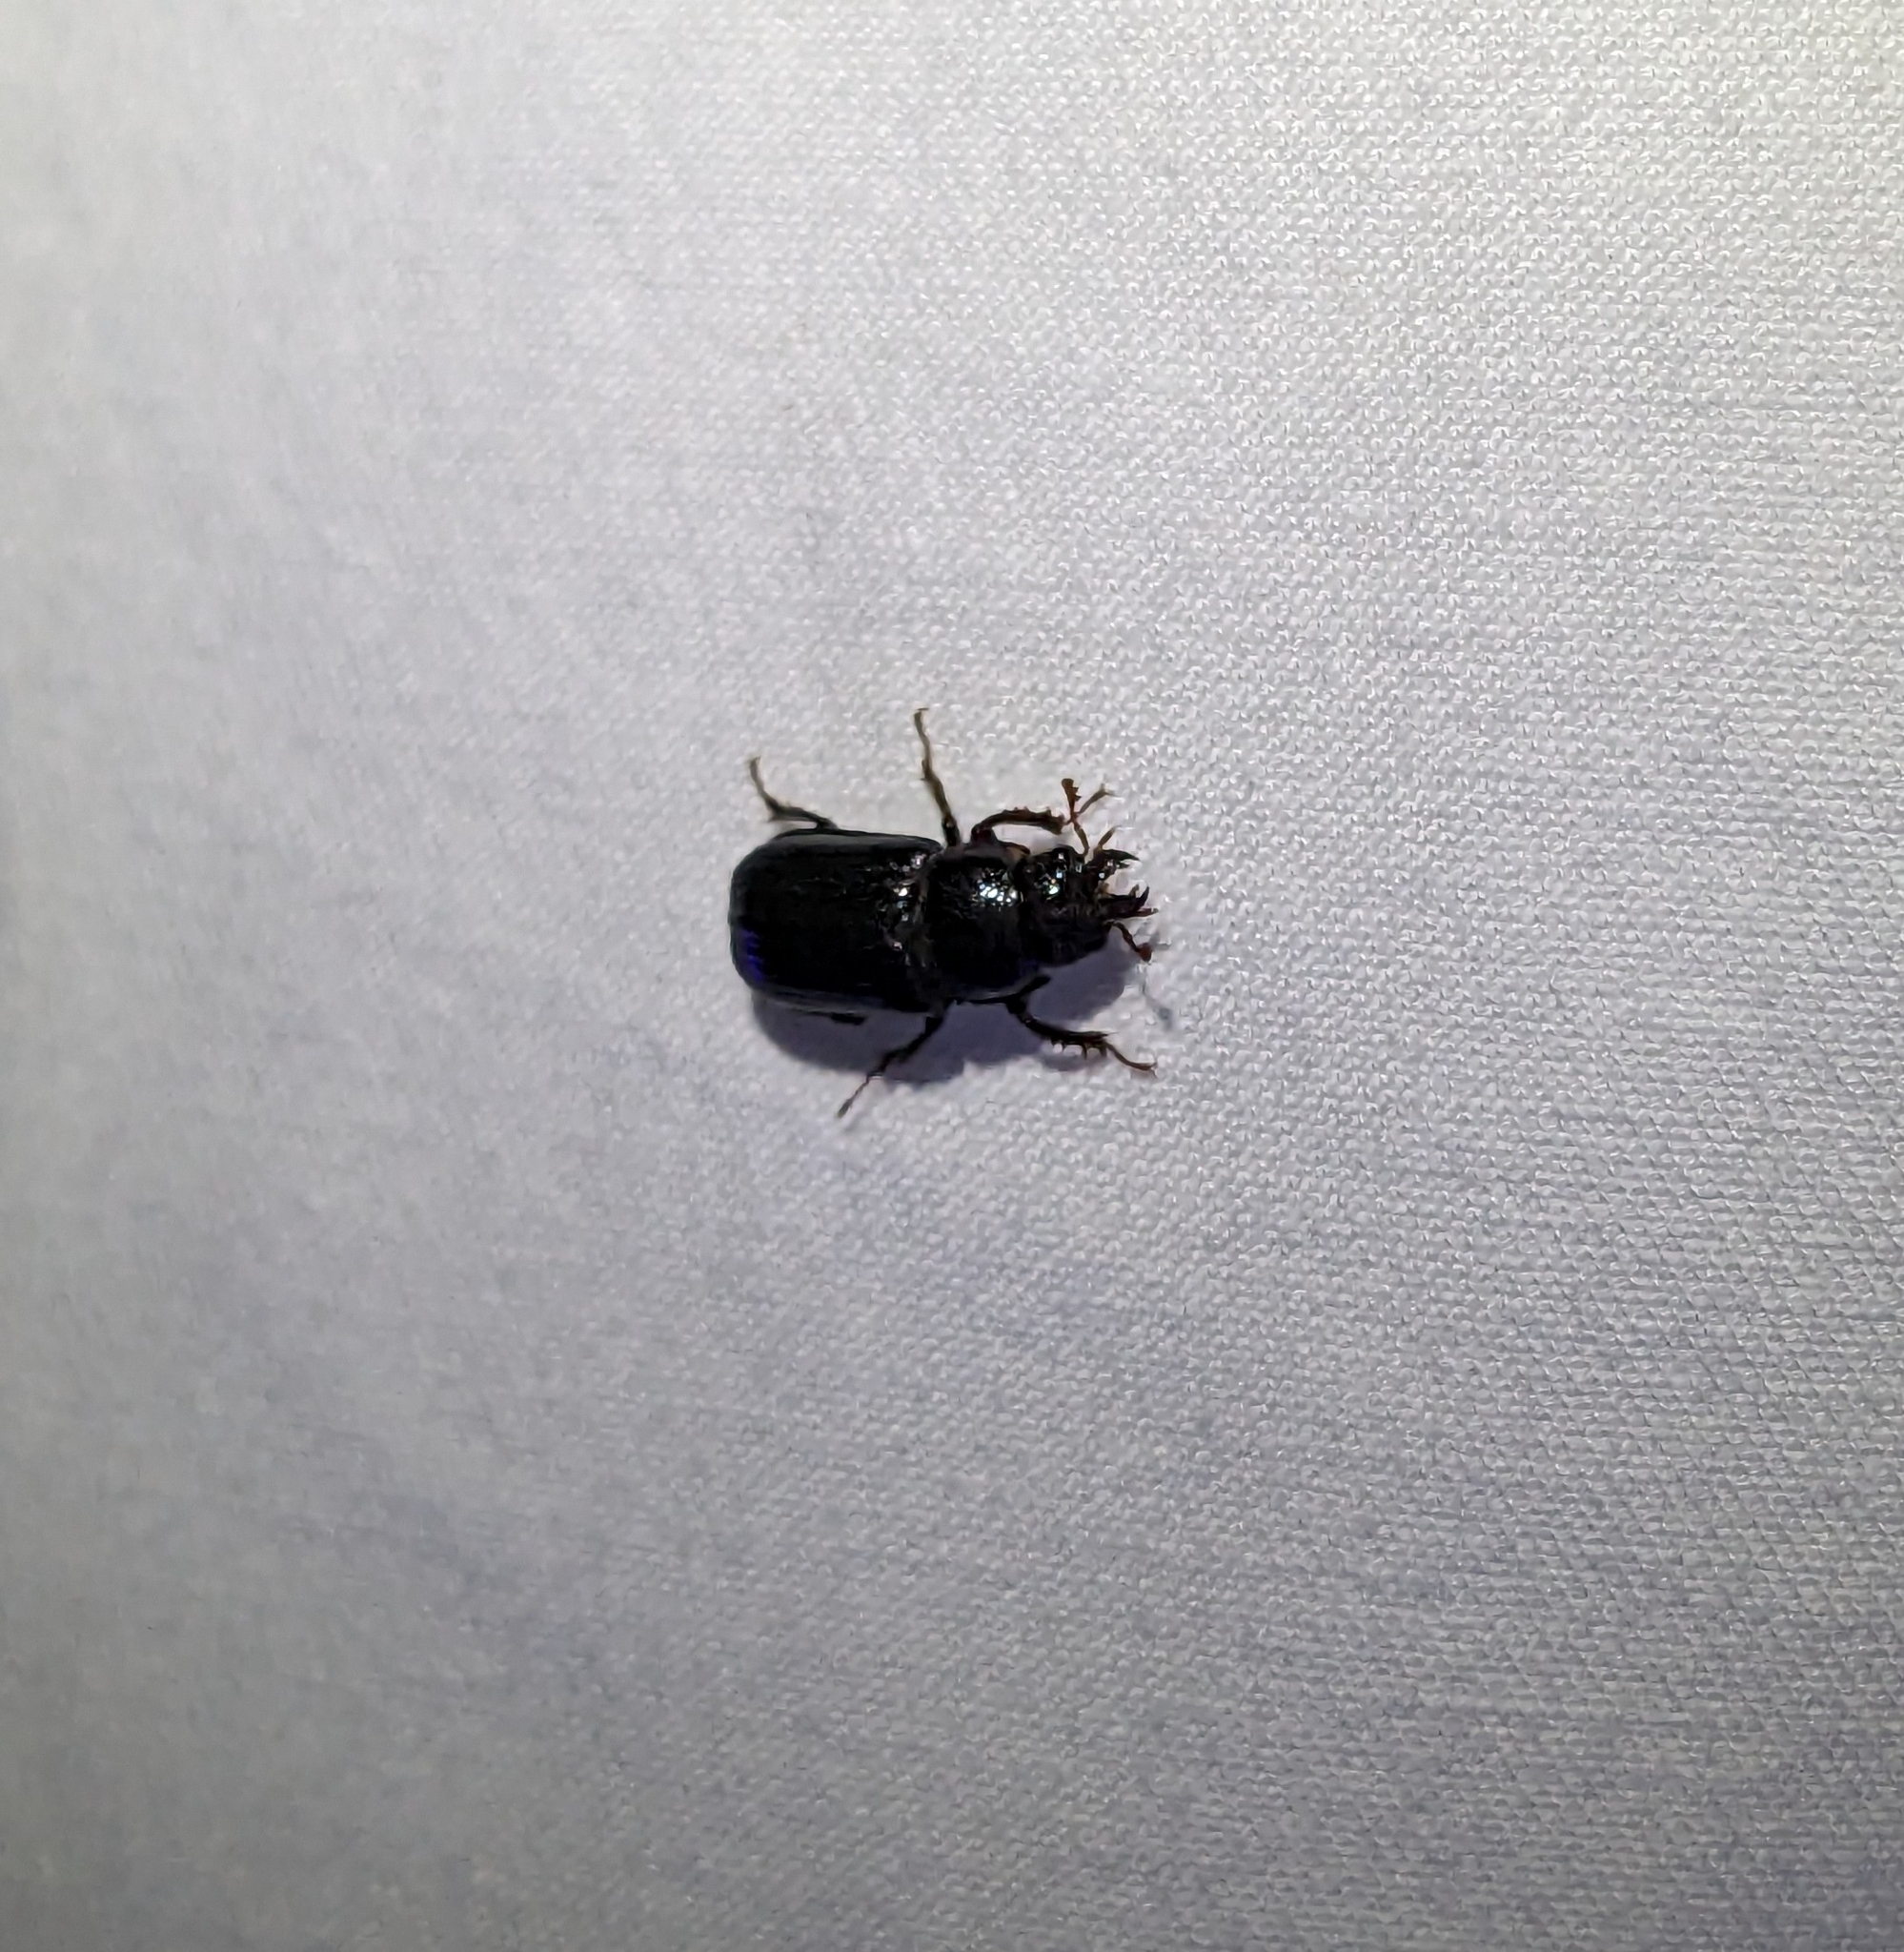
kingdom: Animalia
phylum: Arthropoda
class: Insecta
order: Coleoptera
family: Lucanidae
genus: Ceruchus
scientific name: Ceruchus piceus
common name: Red-rot decay stag beetle
